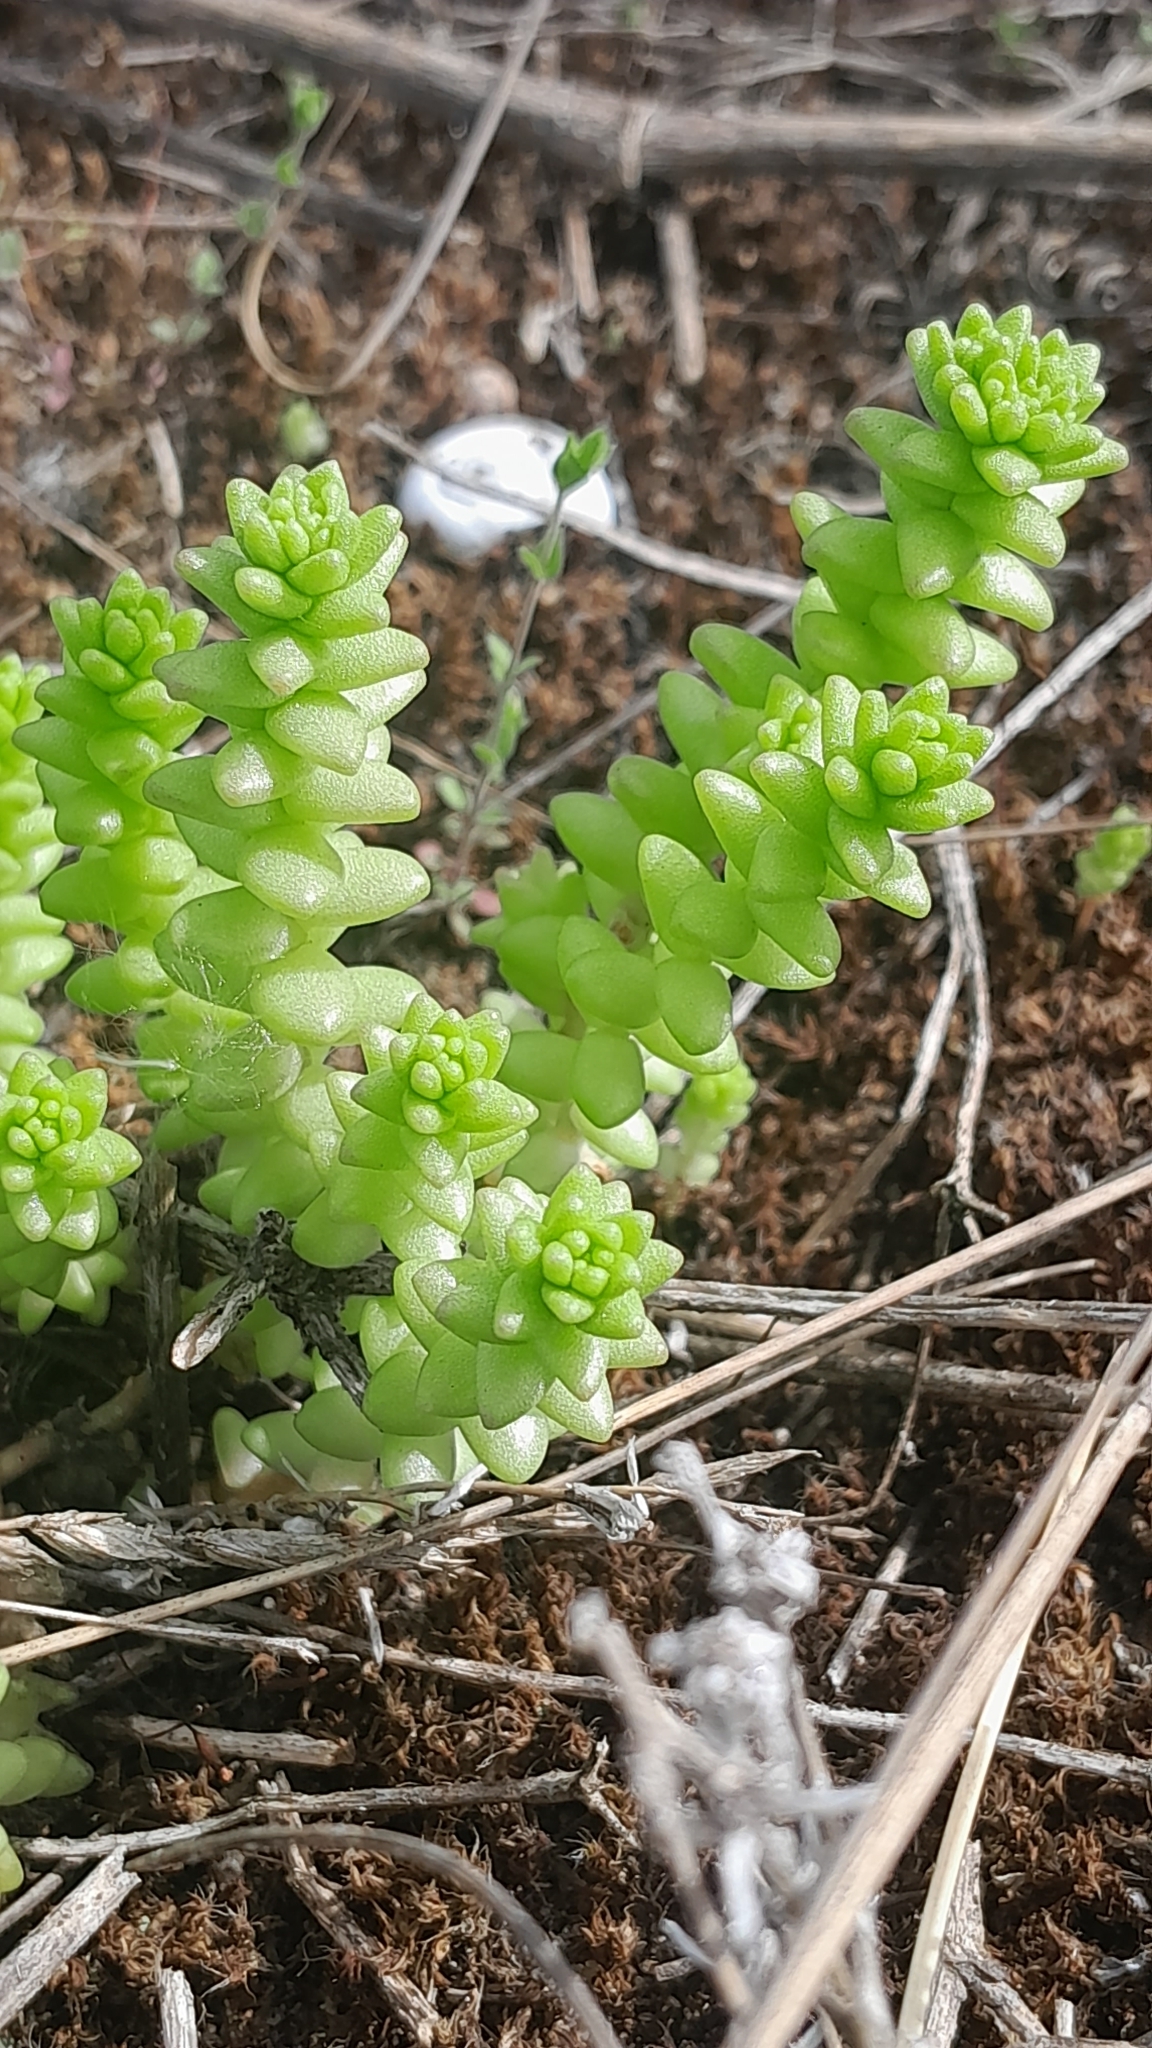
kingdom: Plantae
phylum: Tracheophyta
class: Magnoliopsida
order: Saxifragales
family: Crassulaceae
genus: Sedum
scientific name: Sedum acre
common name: Biting stonecrop
